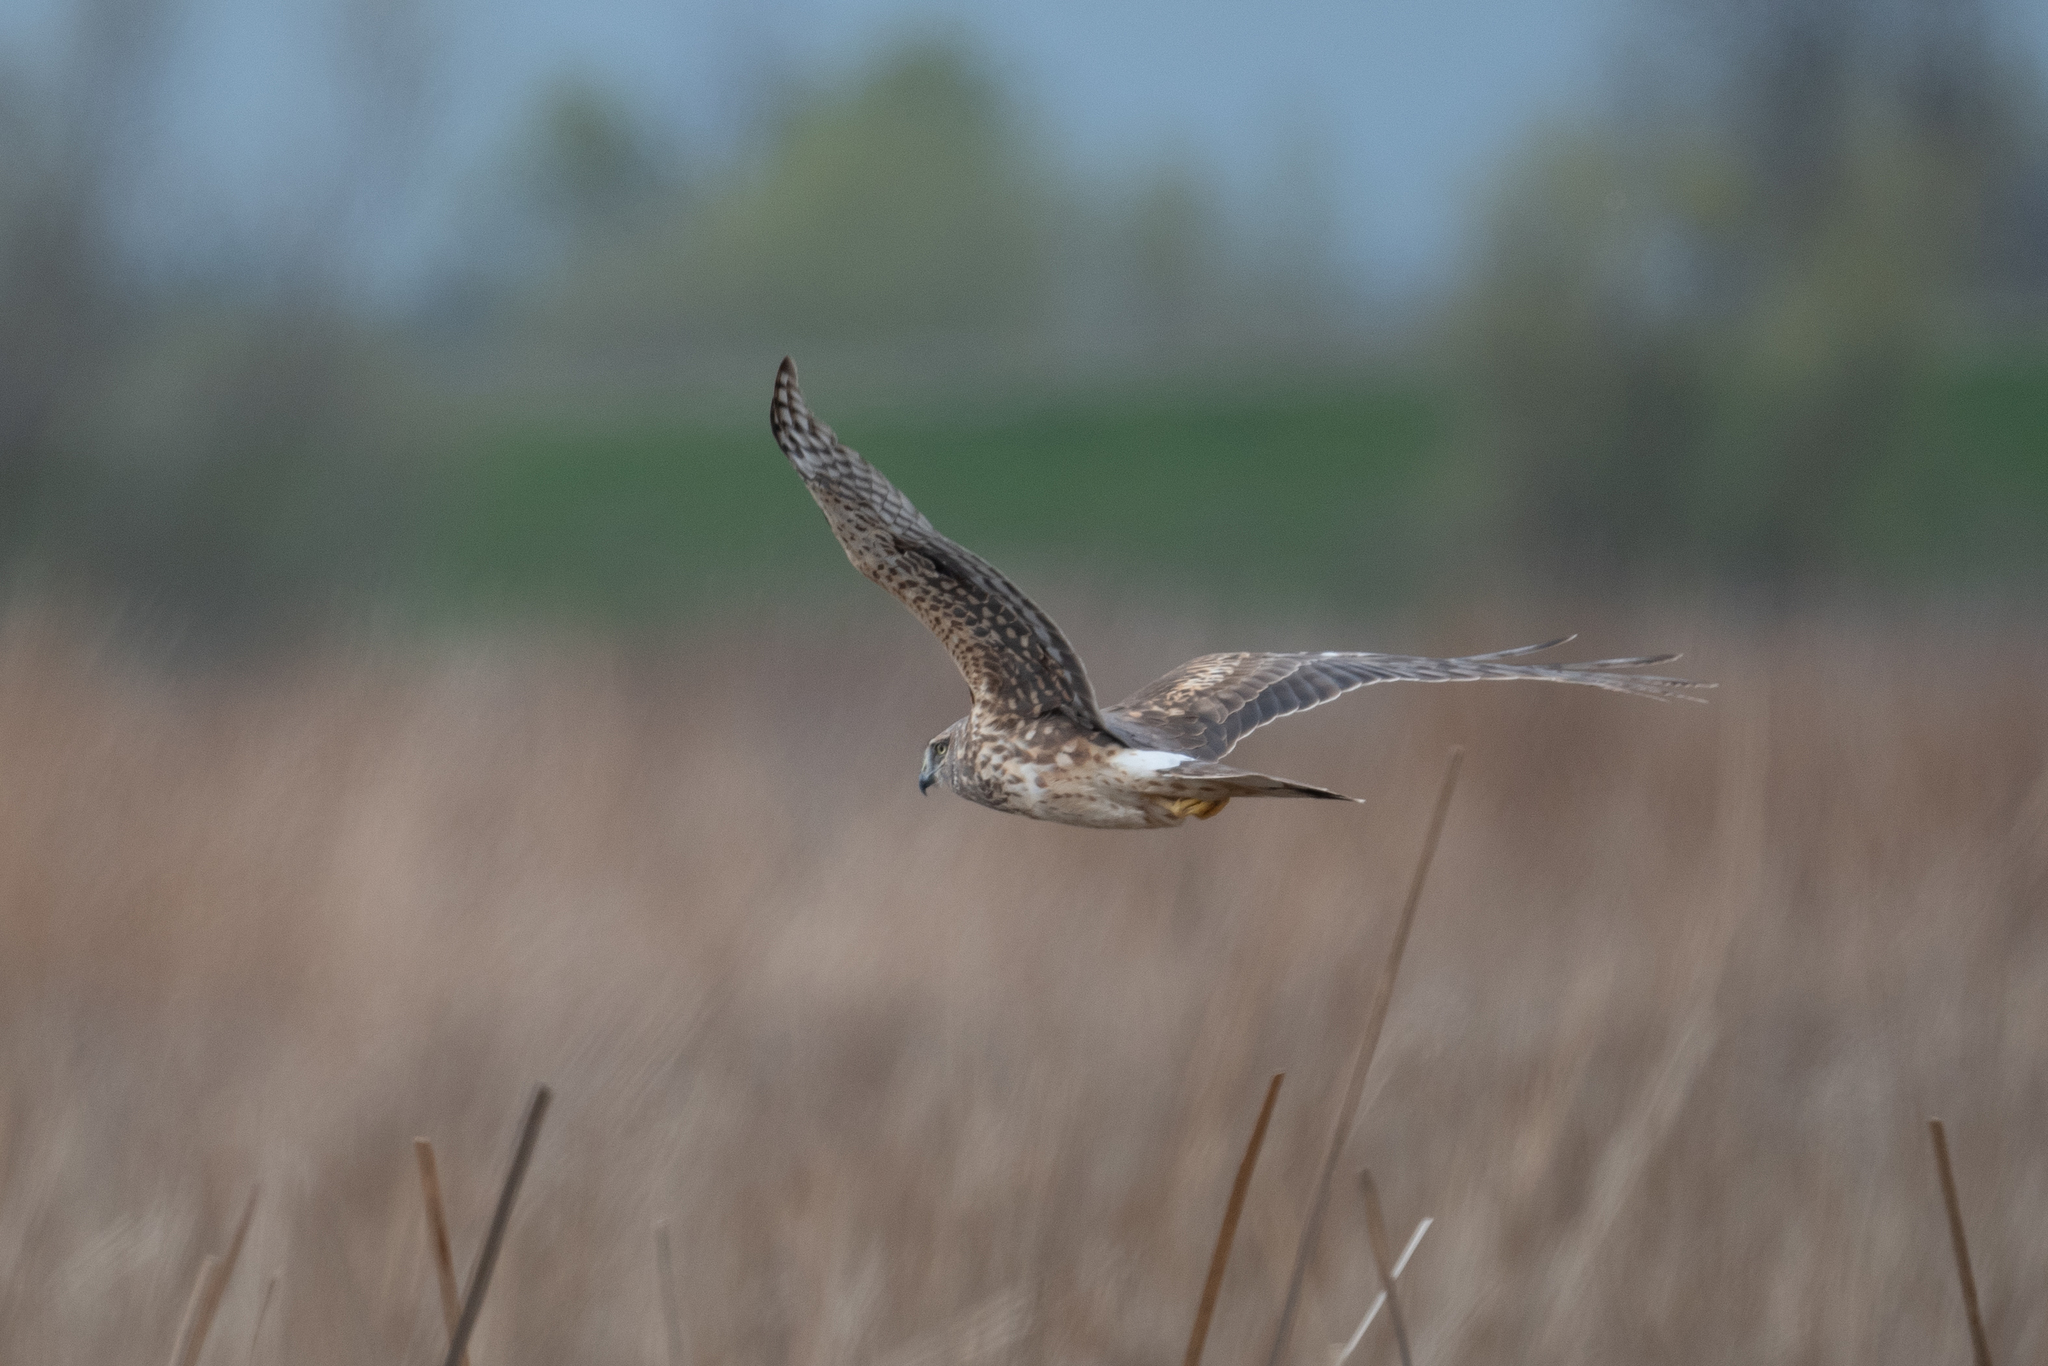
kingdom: Animalia
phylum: Chordata
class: Aves
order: Accipitriformes
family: Accipitridae
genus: Circus
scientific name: Circus cyaneus
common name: Hen harrier
